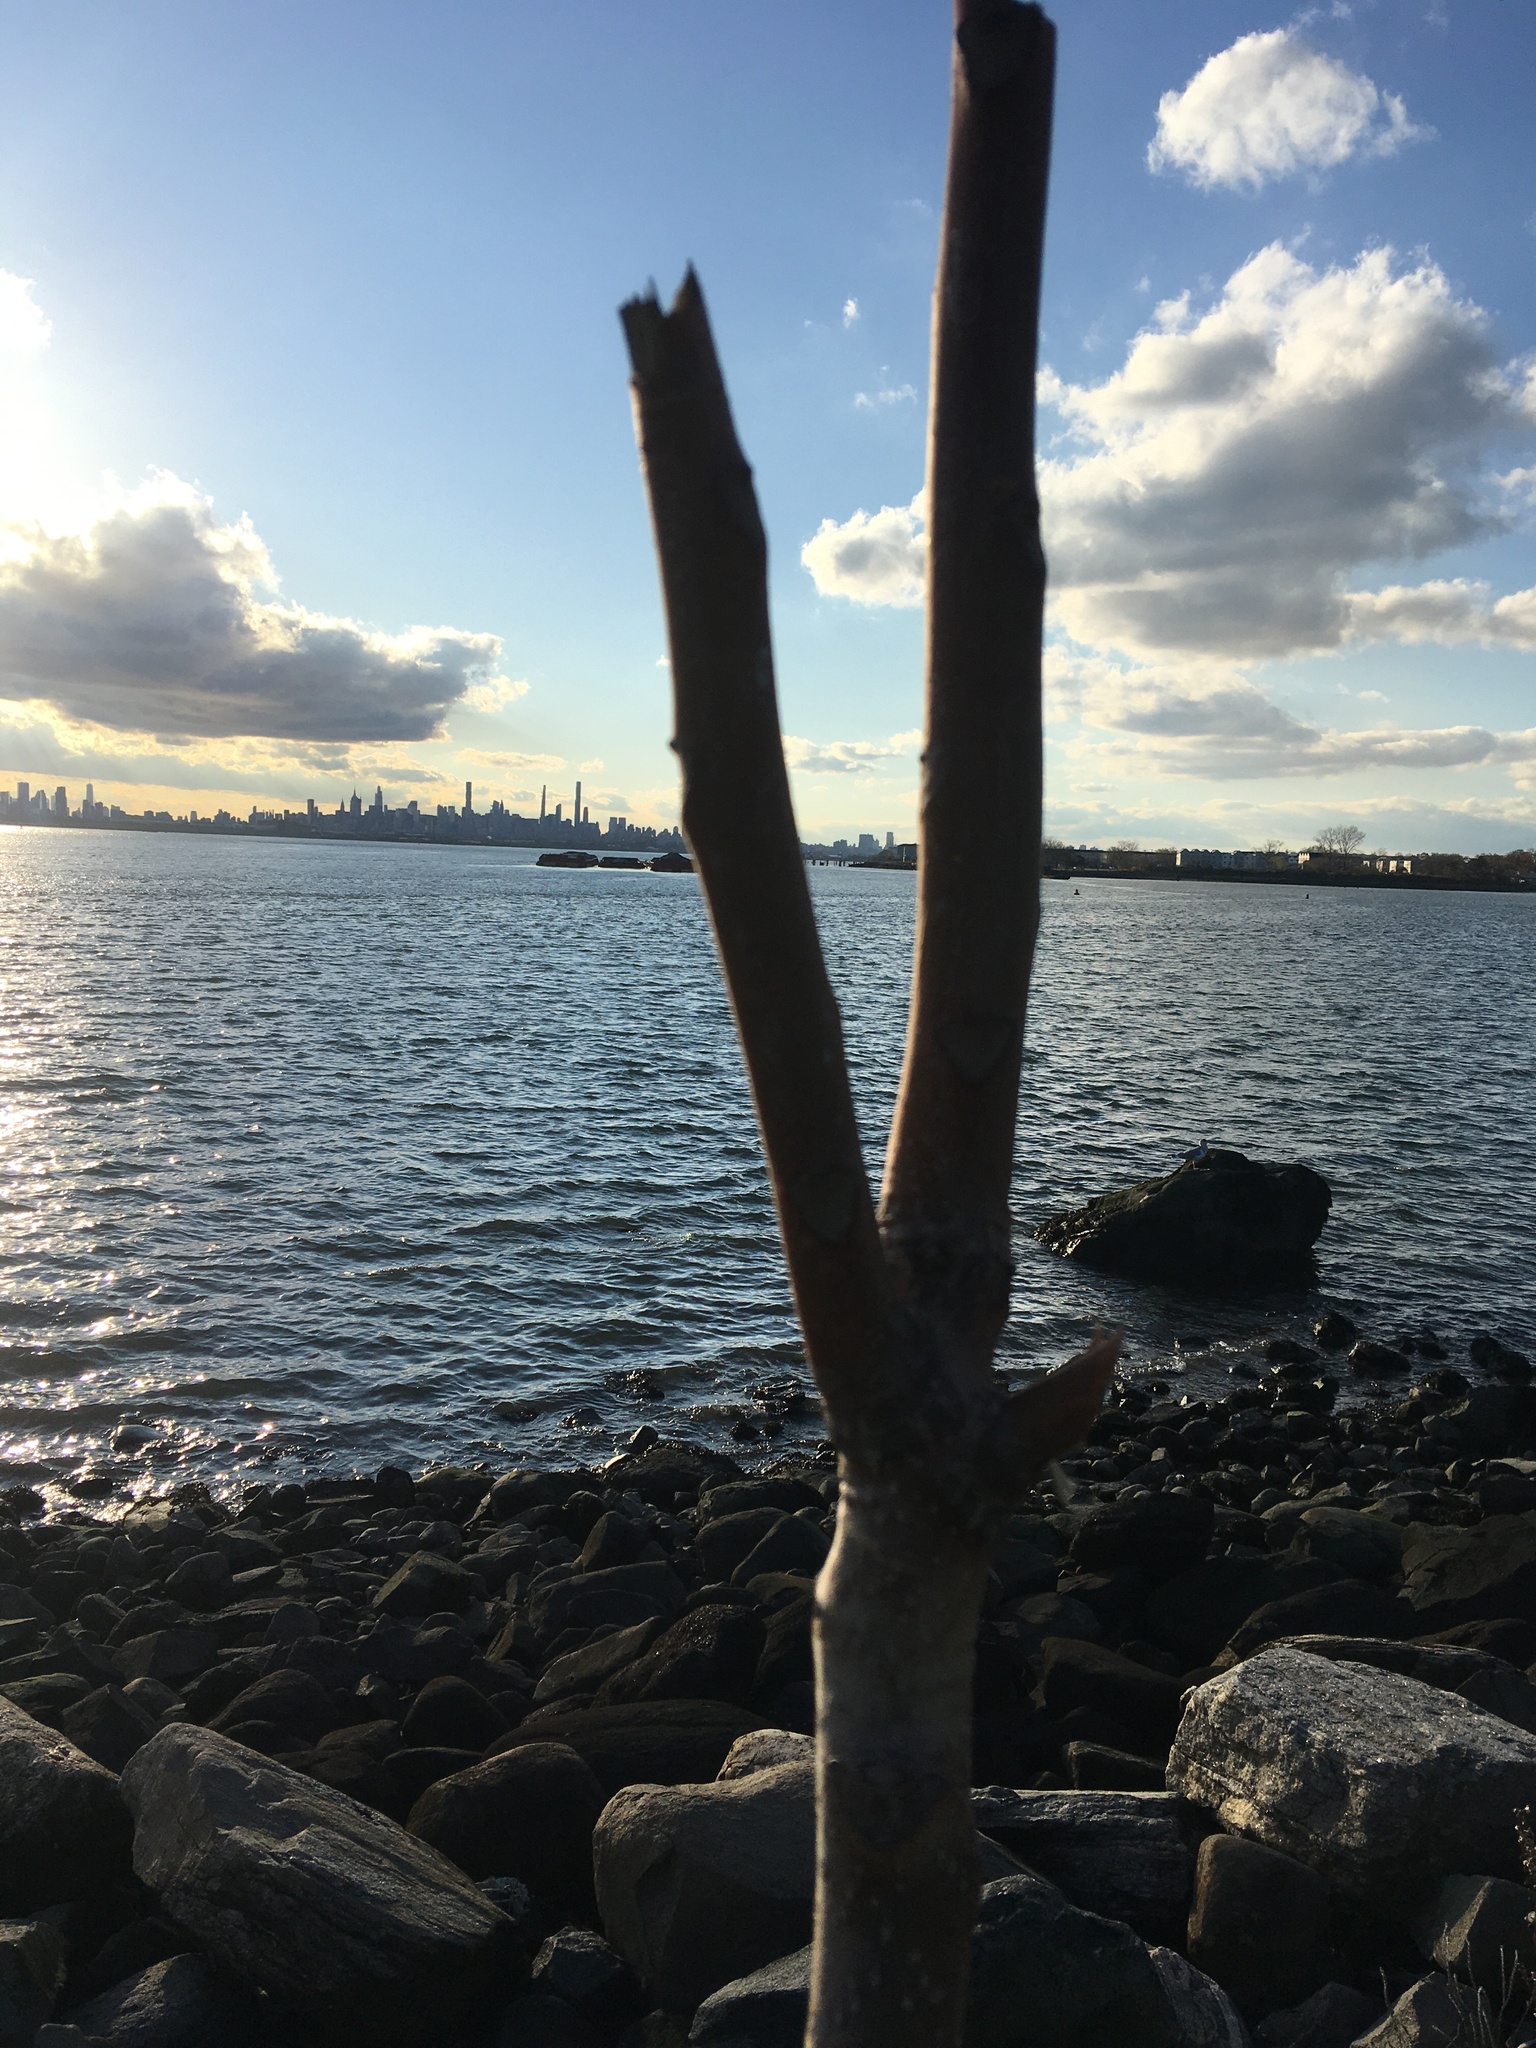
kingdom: Plantae
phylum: Tracheophyta
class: Magnoliopsida
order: Sapindales
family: Simaroubaceae
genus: Ailanthus
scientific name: Ailanthus altissima
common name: Tree-of-heaven
